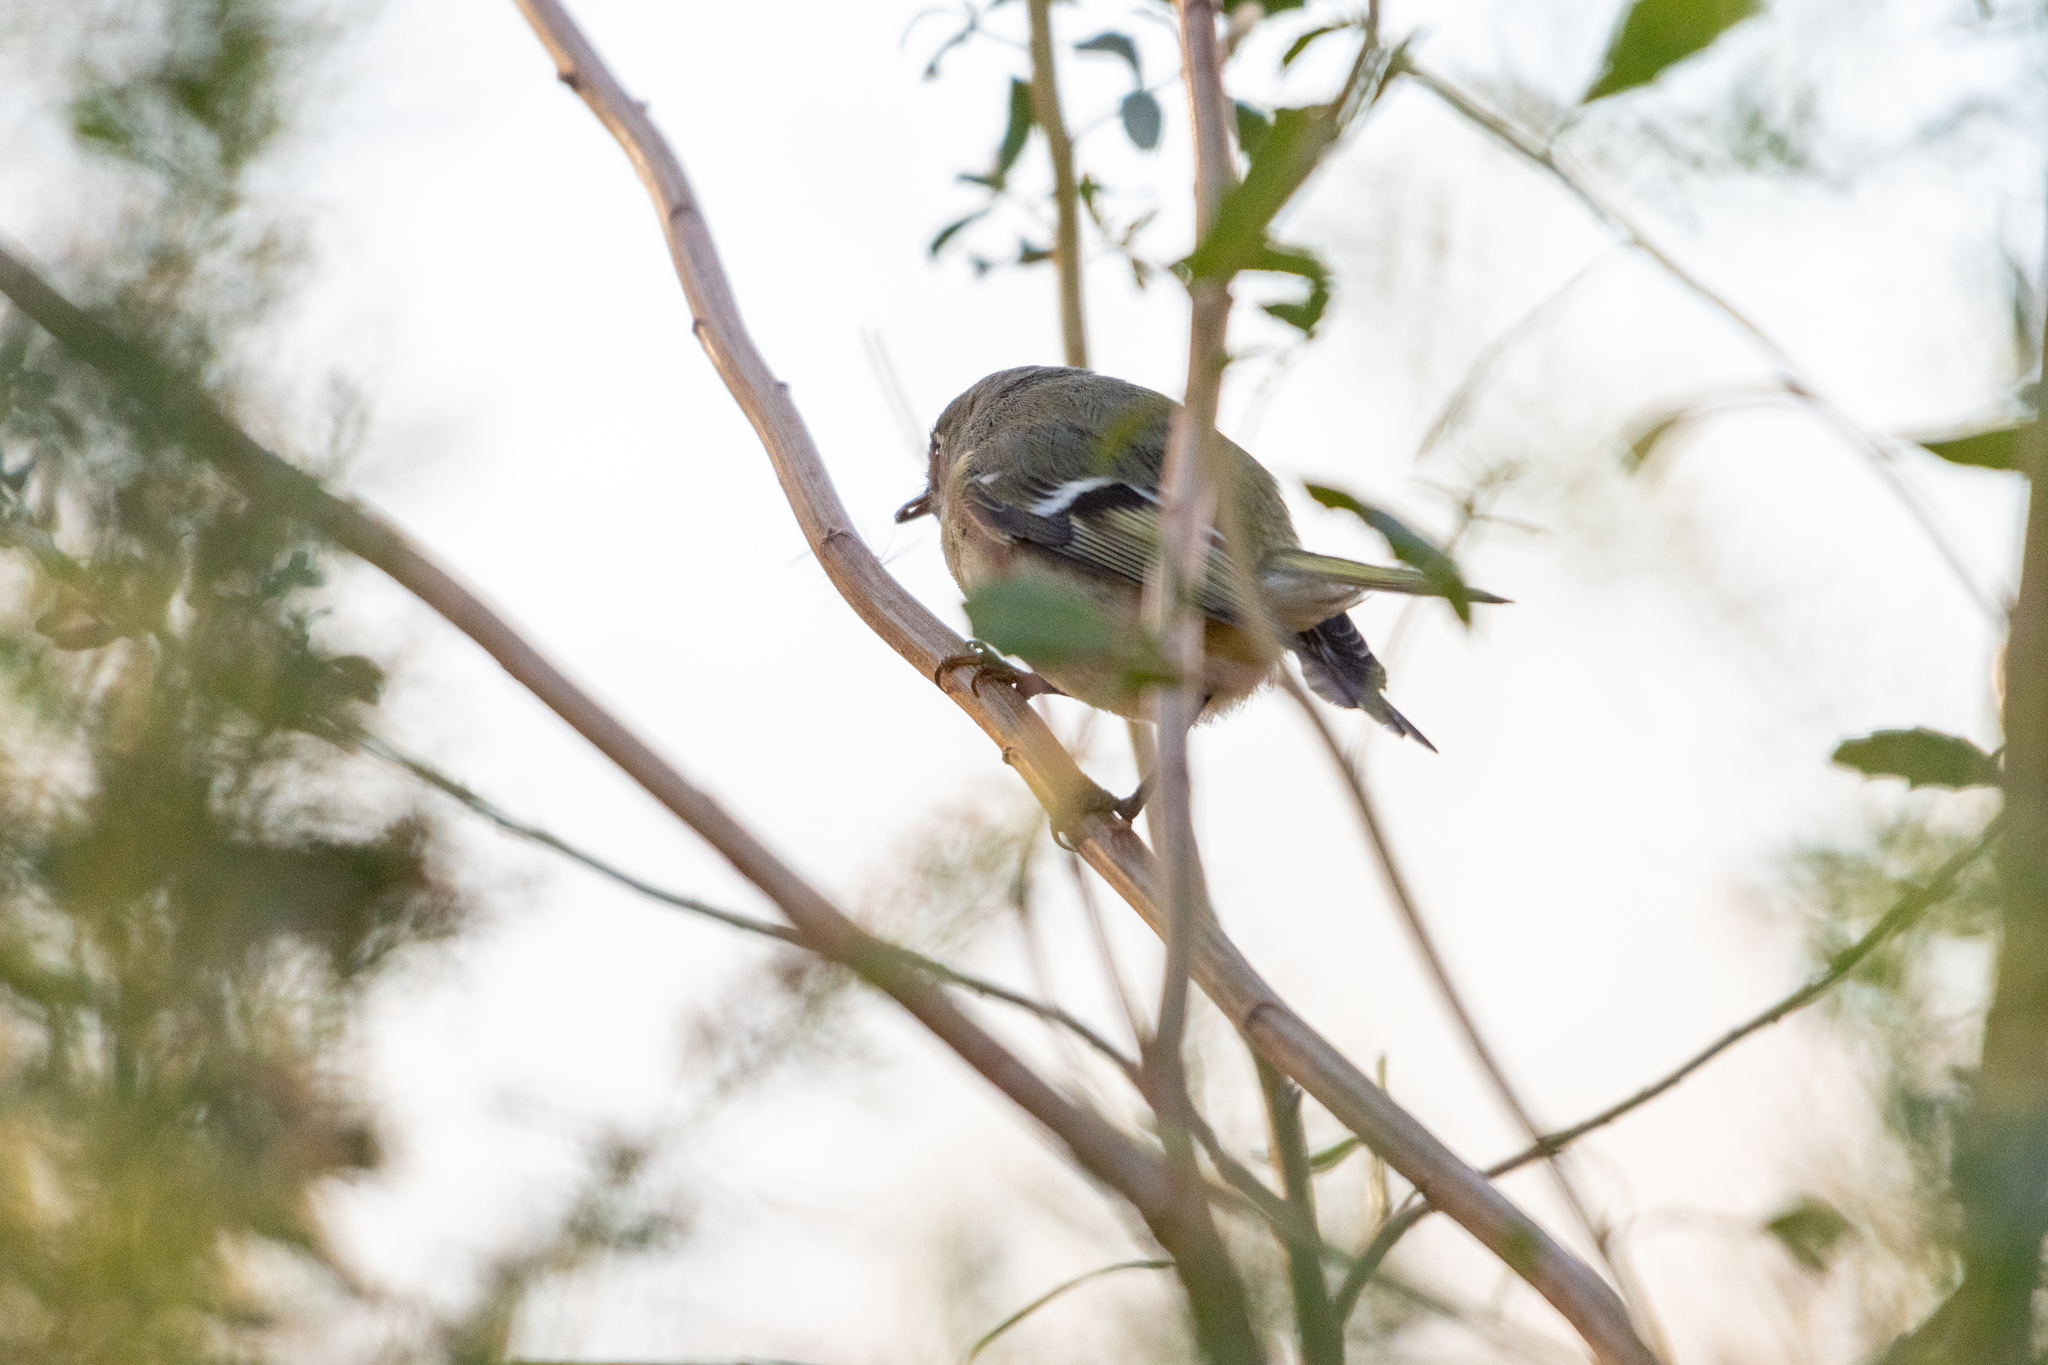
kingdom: Animalia
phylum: Chordata
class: Aves
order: Passeriformes
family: Regulidae
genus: Regulus
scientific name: Regulus calendula
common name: Ruby-crowned kinglet
